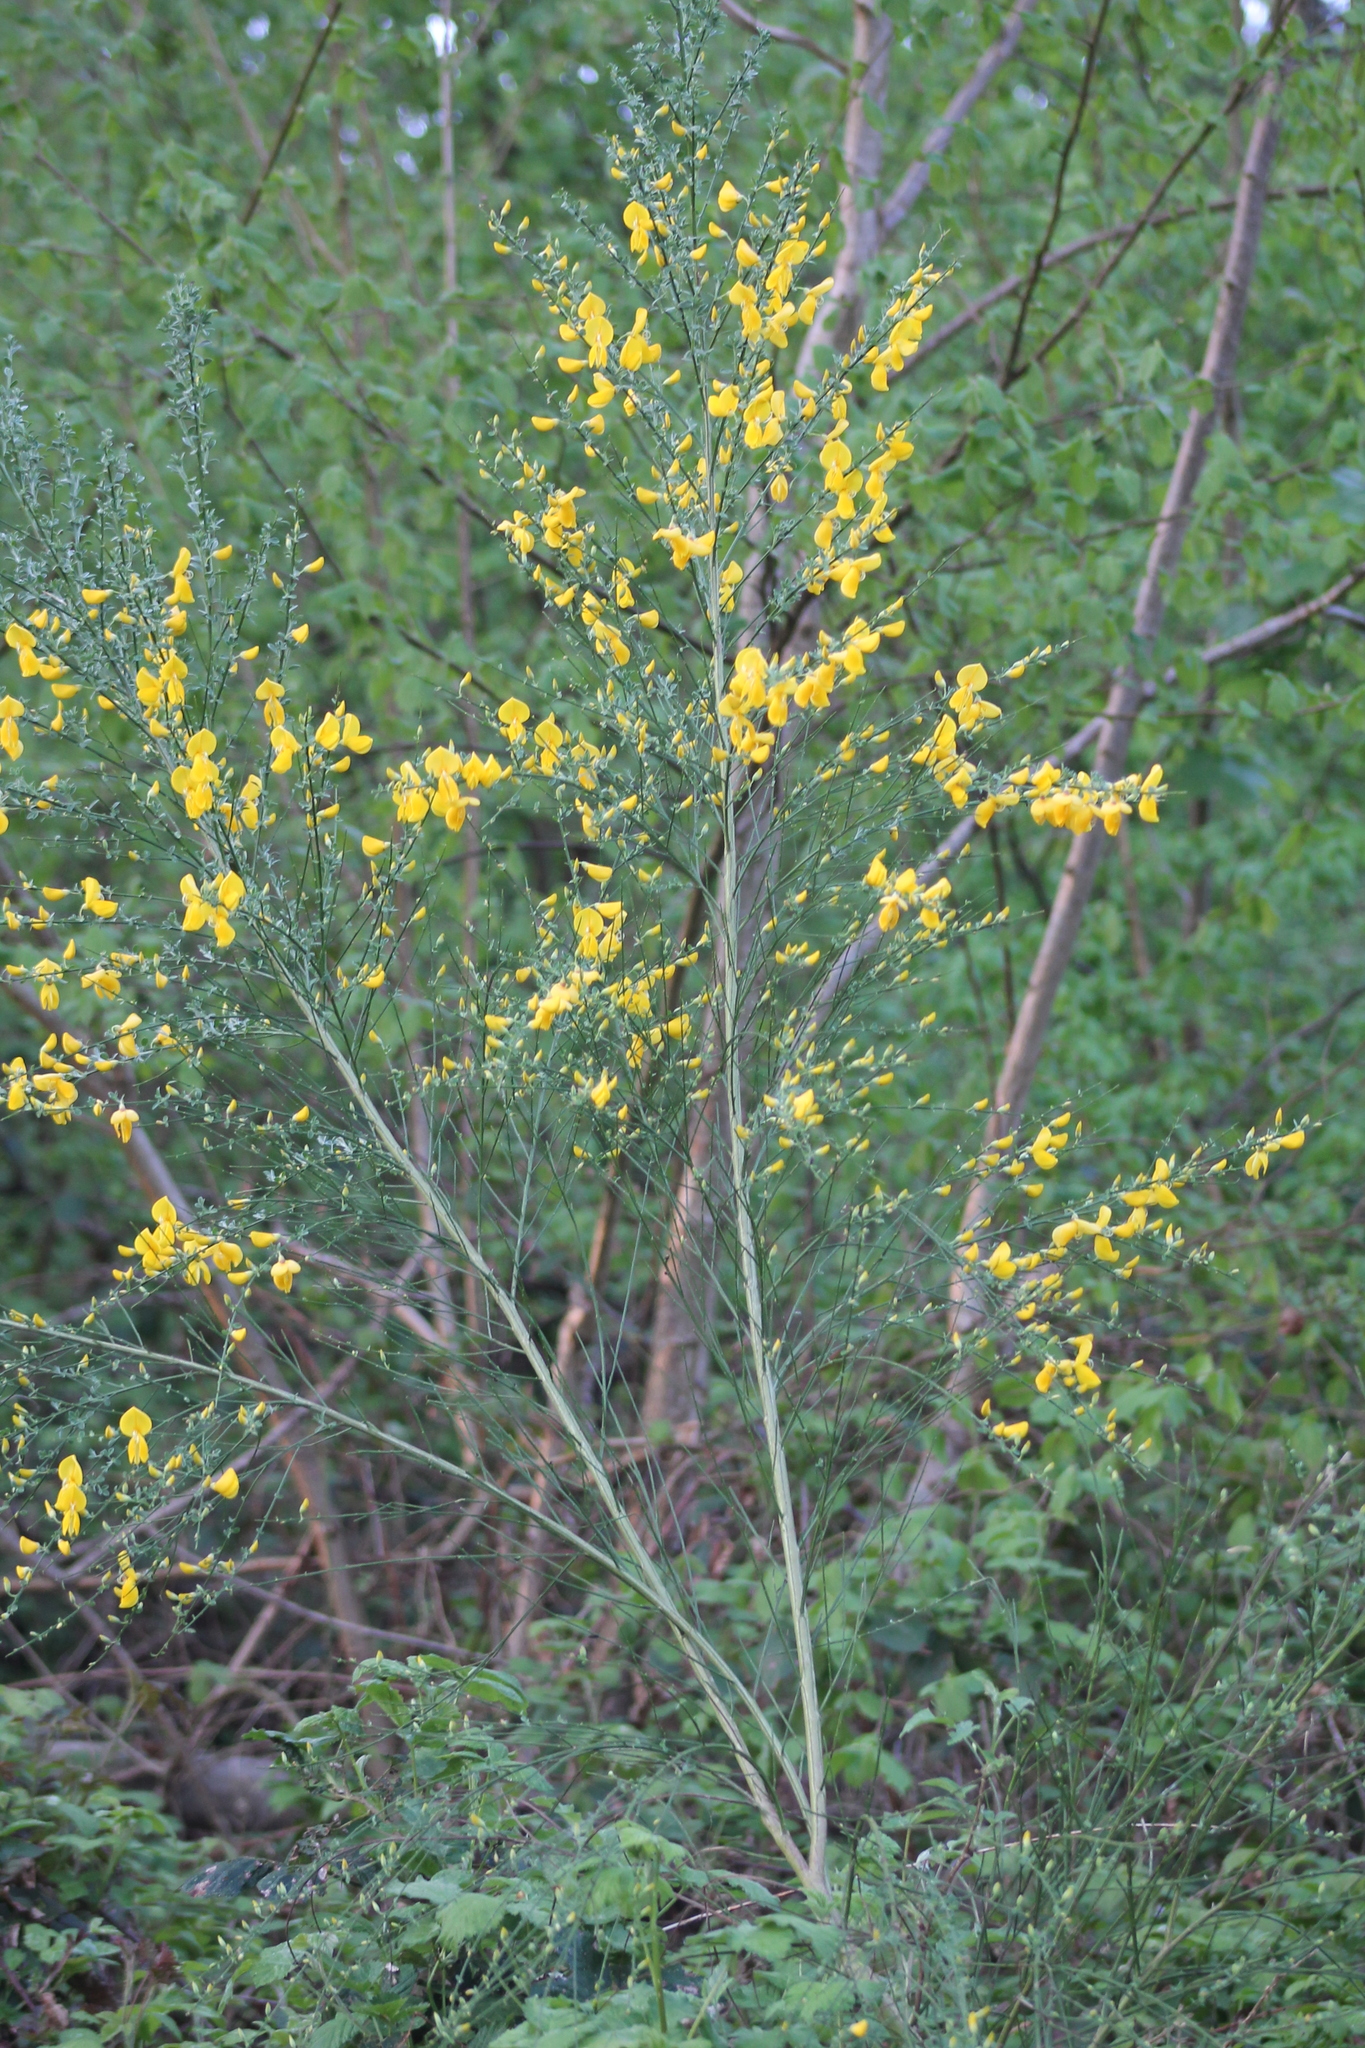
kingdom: Plantae
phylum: Tracheophyta
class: Magnoliopsida
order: Fabales
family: Fabaceae
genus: Cytisus
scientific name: Cytisus scoparius
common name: Scotch broom
